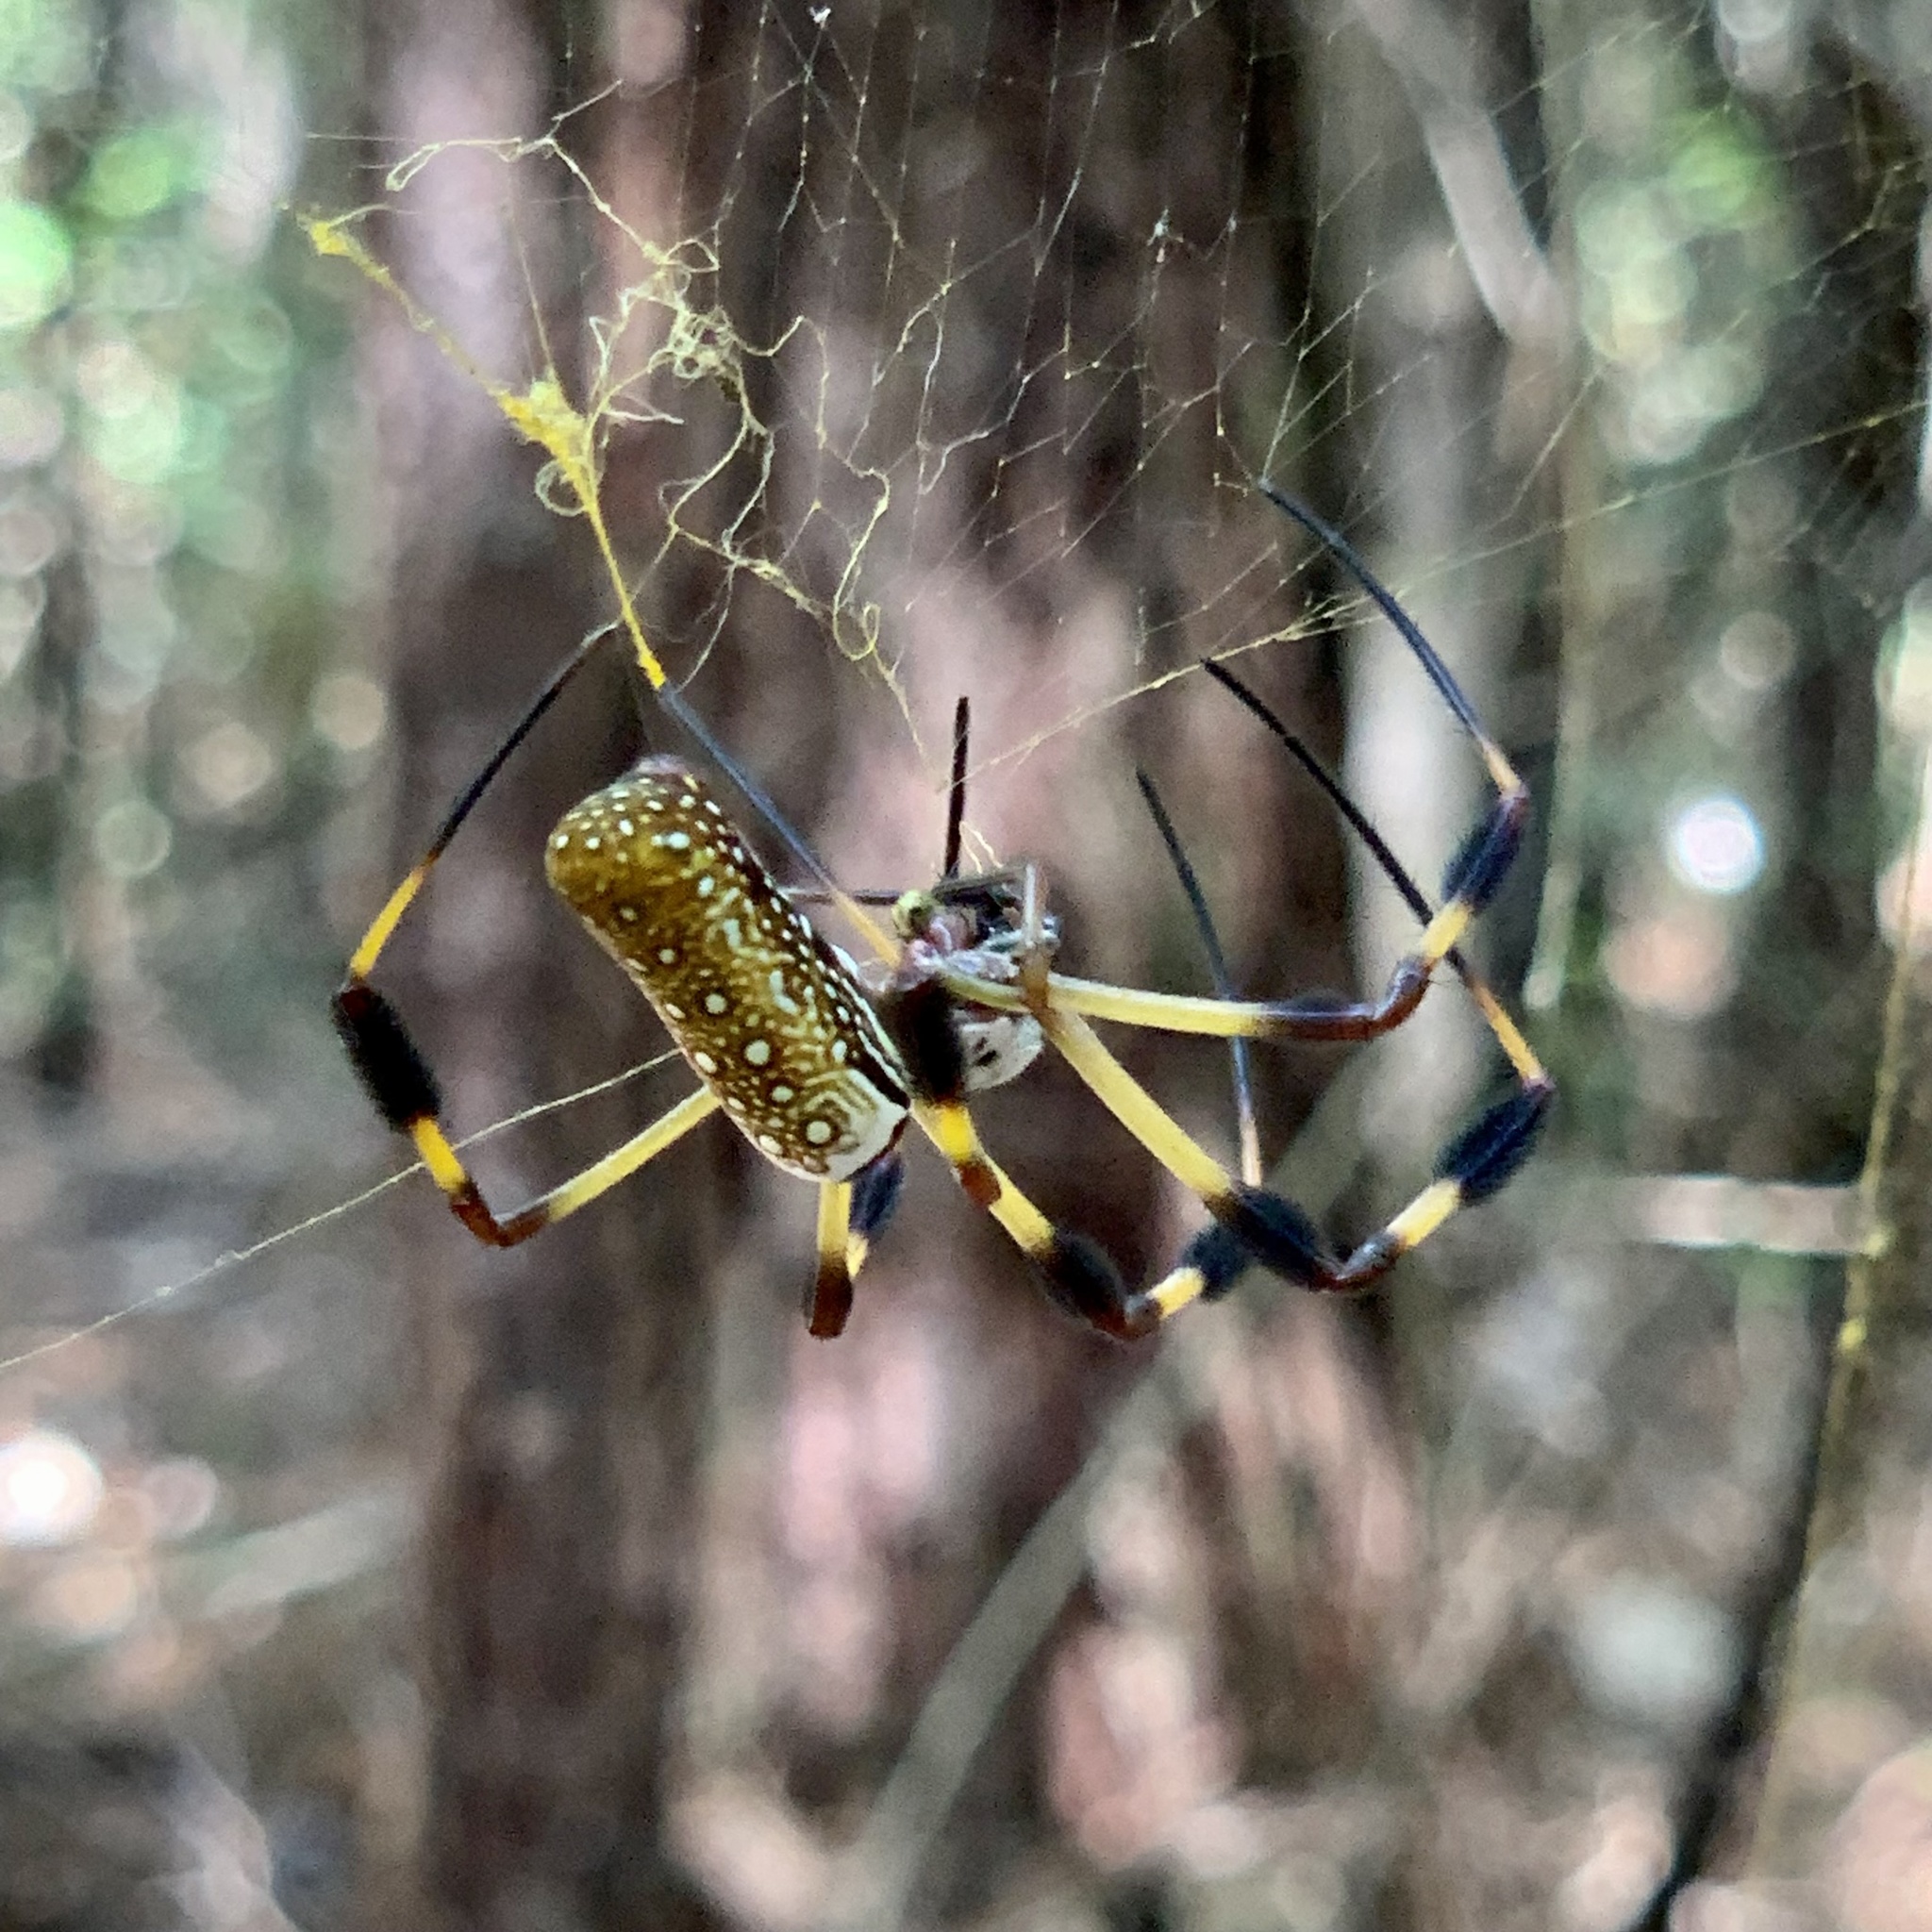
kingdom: Animalia
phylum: Arthropoda
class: Arachnida
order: Araneae
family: Araneidae
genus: Trichonephila
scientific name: Trichonephila clavipes
